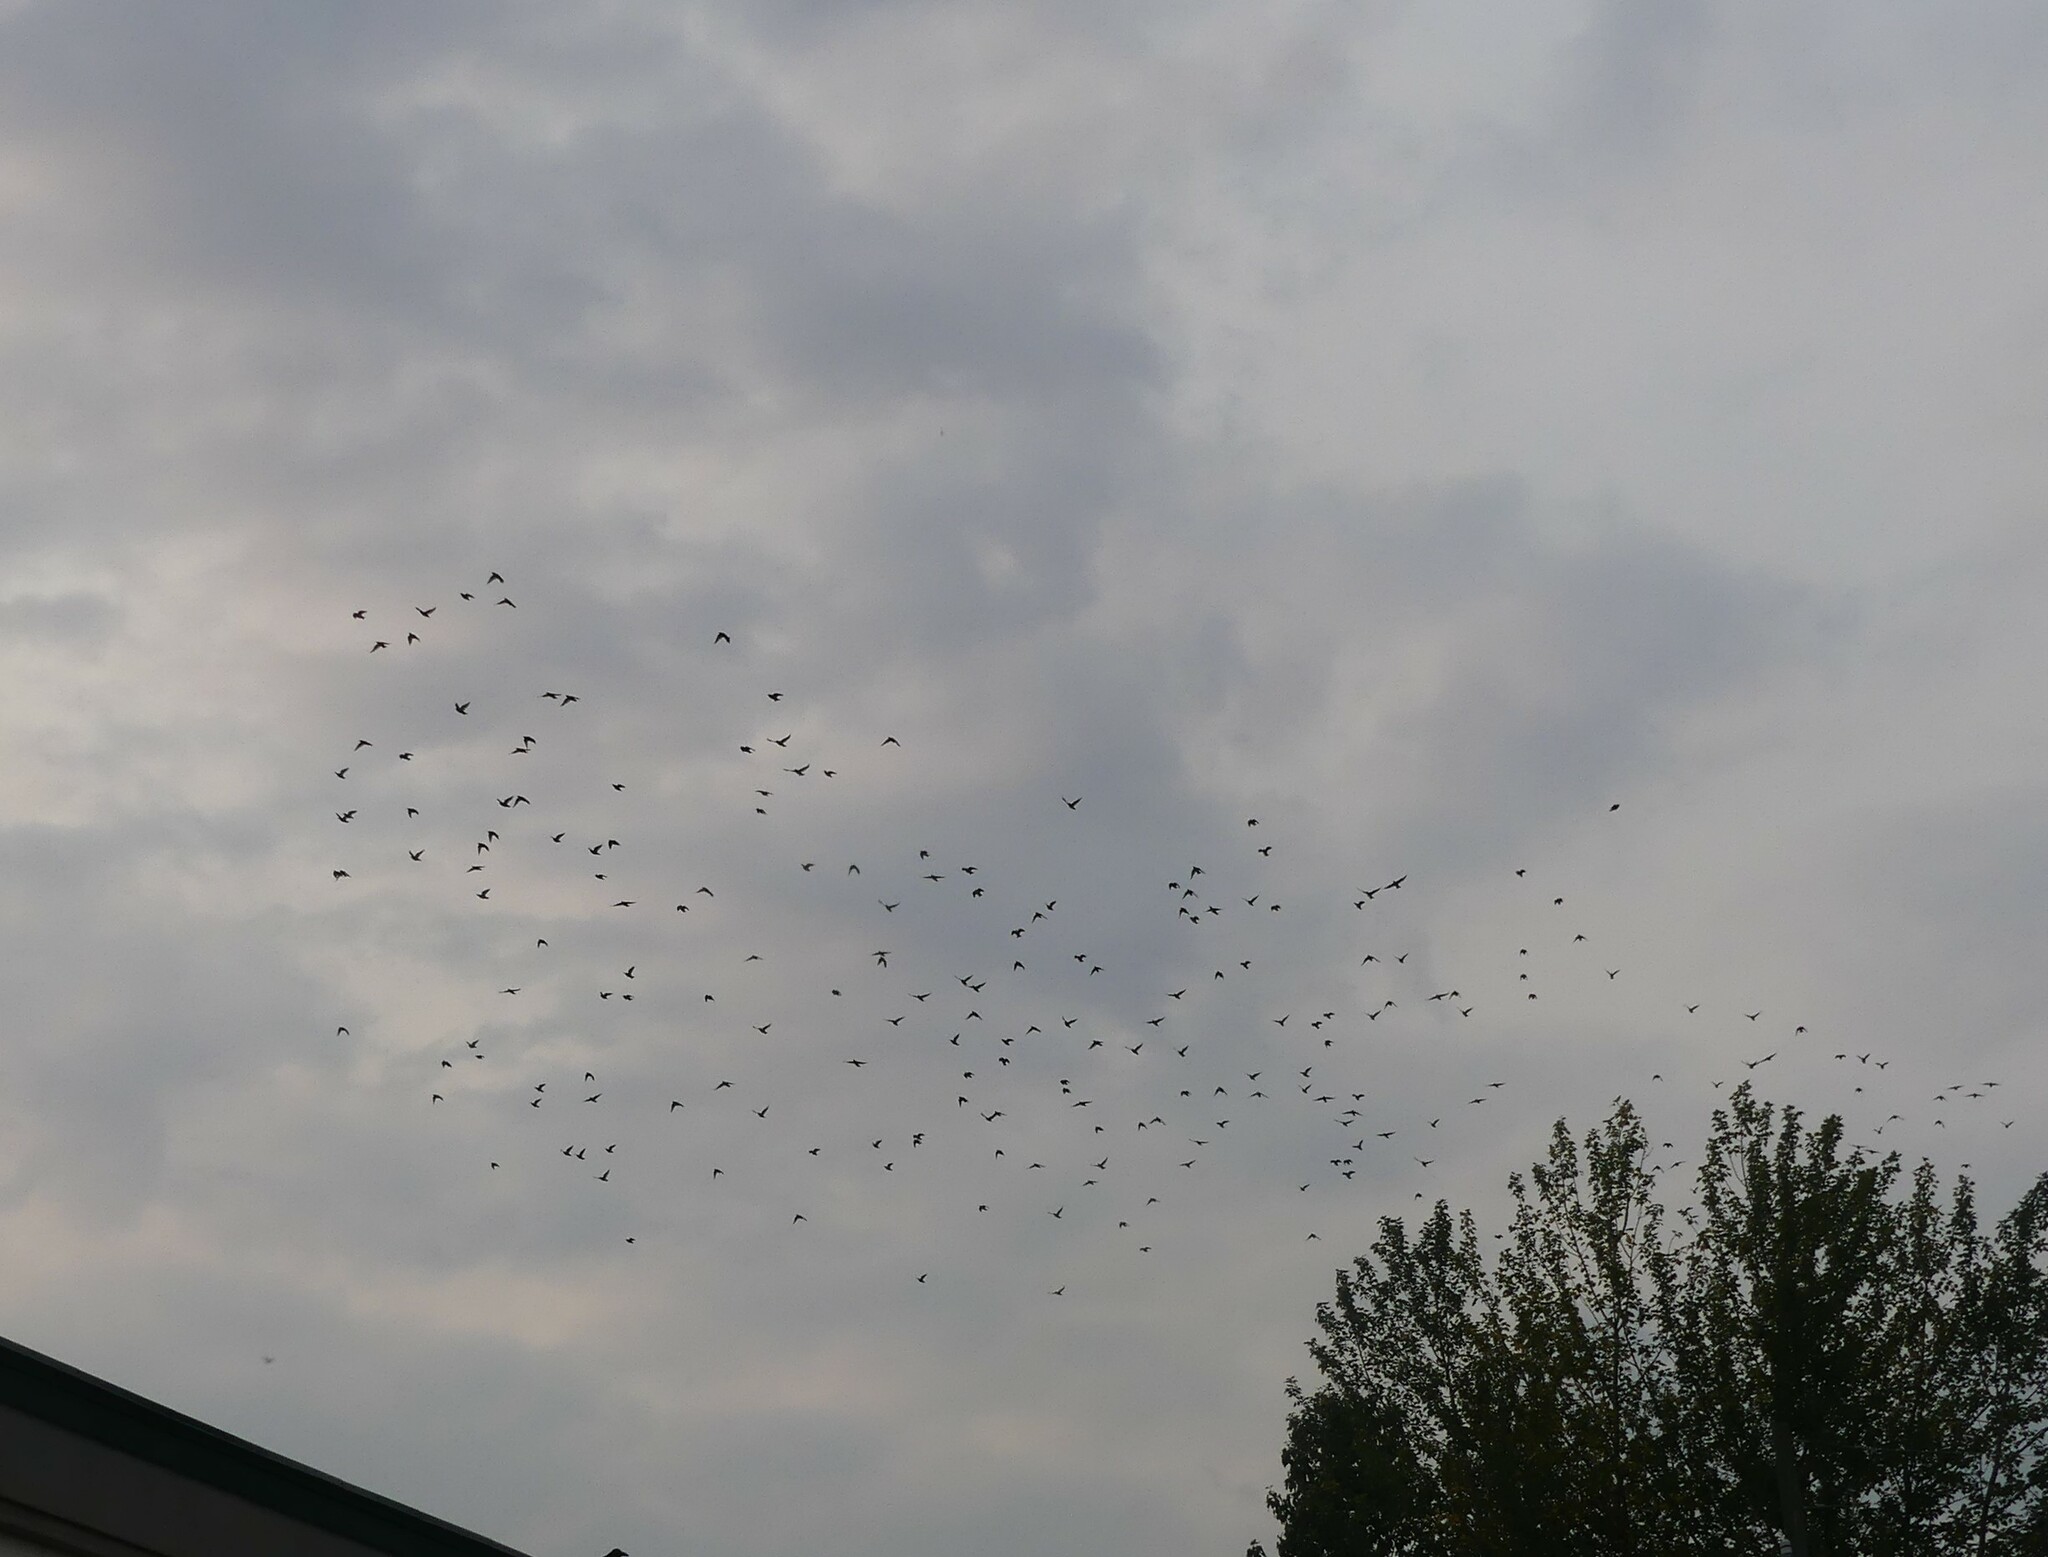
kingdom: Animalia
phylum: Chordata
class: Aves
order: Passeriformes
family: Sturnidae
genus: Sturnus
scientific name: Sturnus vulgaris
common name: Common starling
